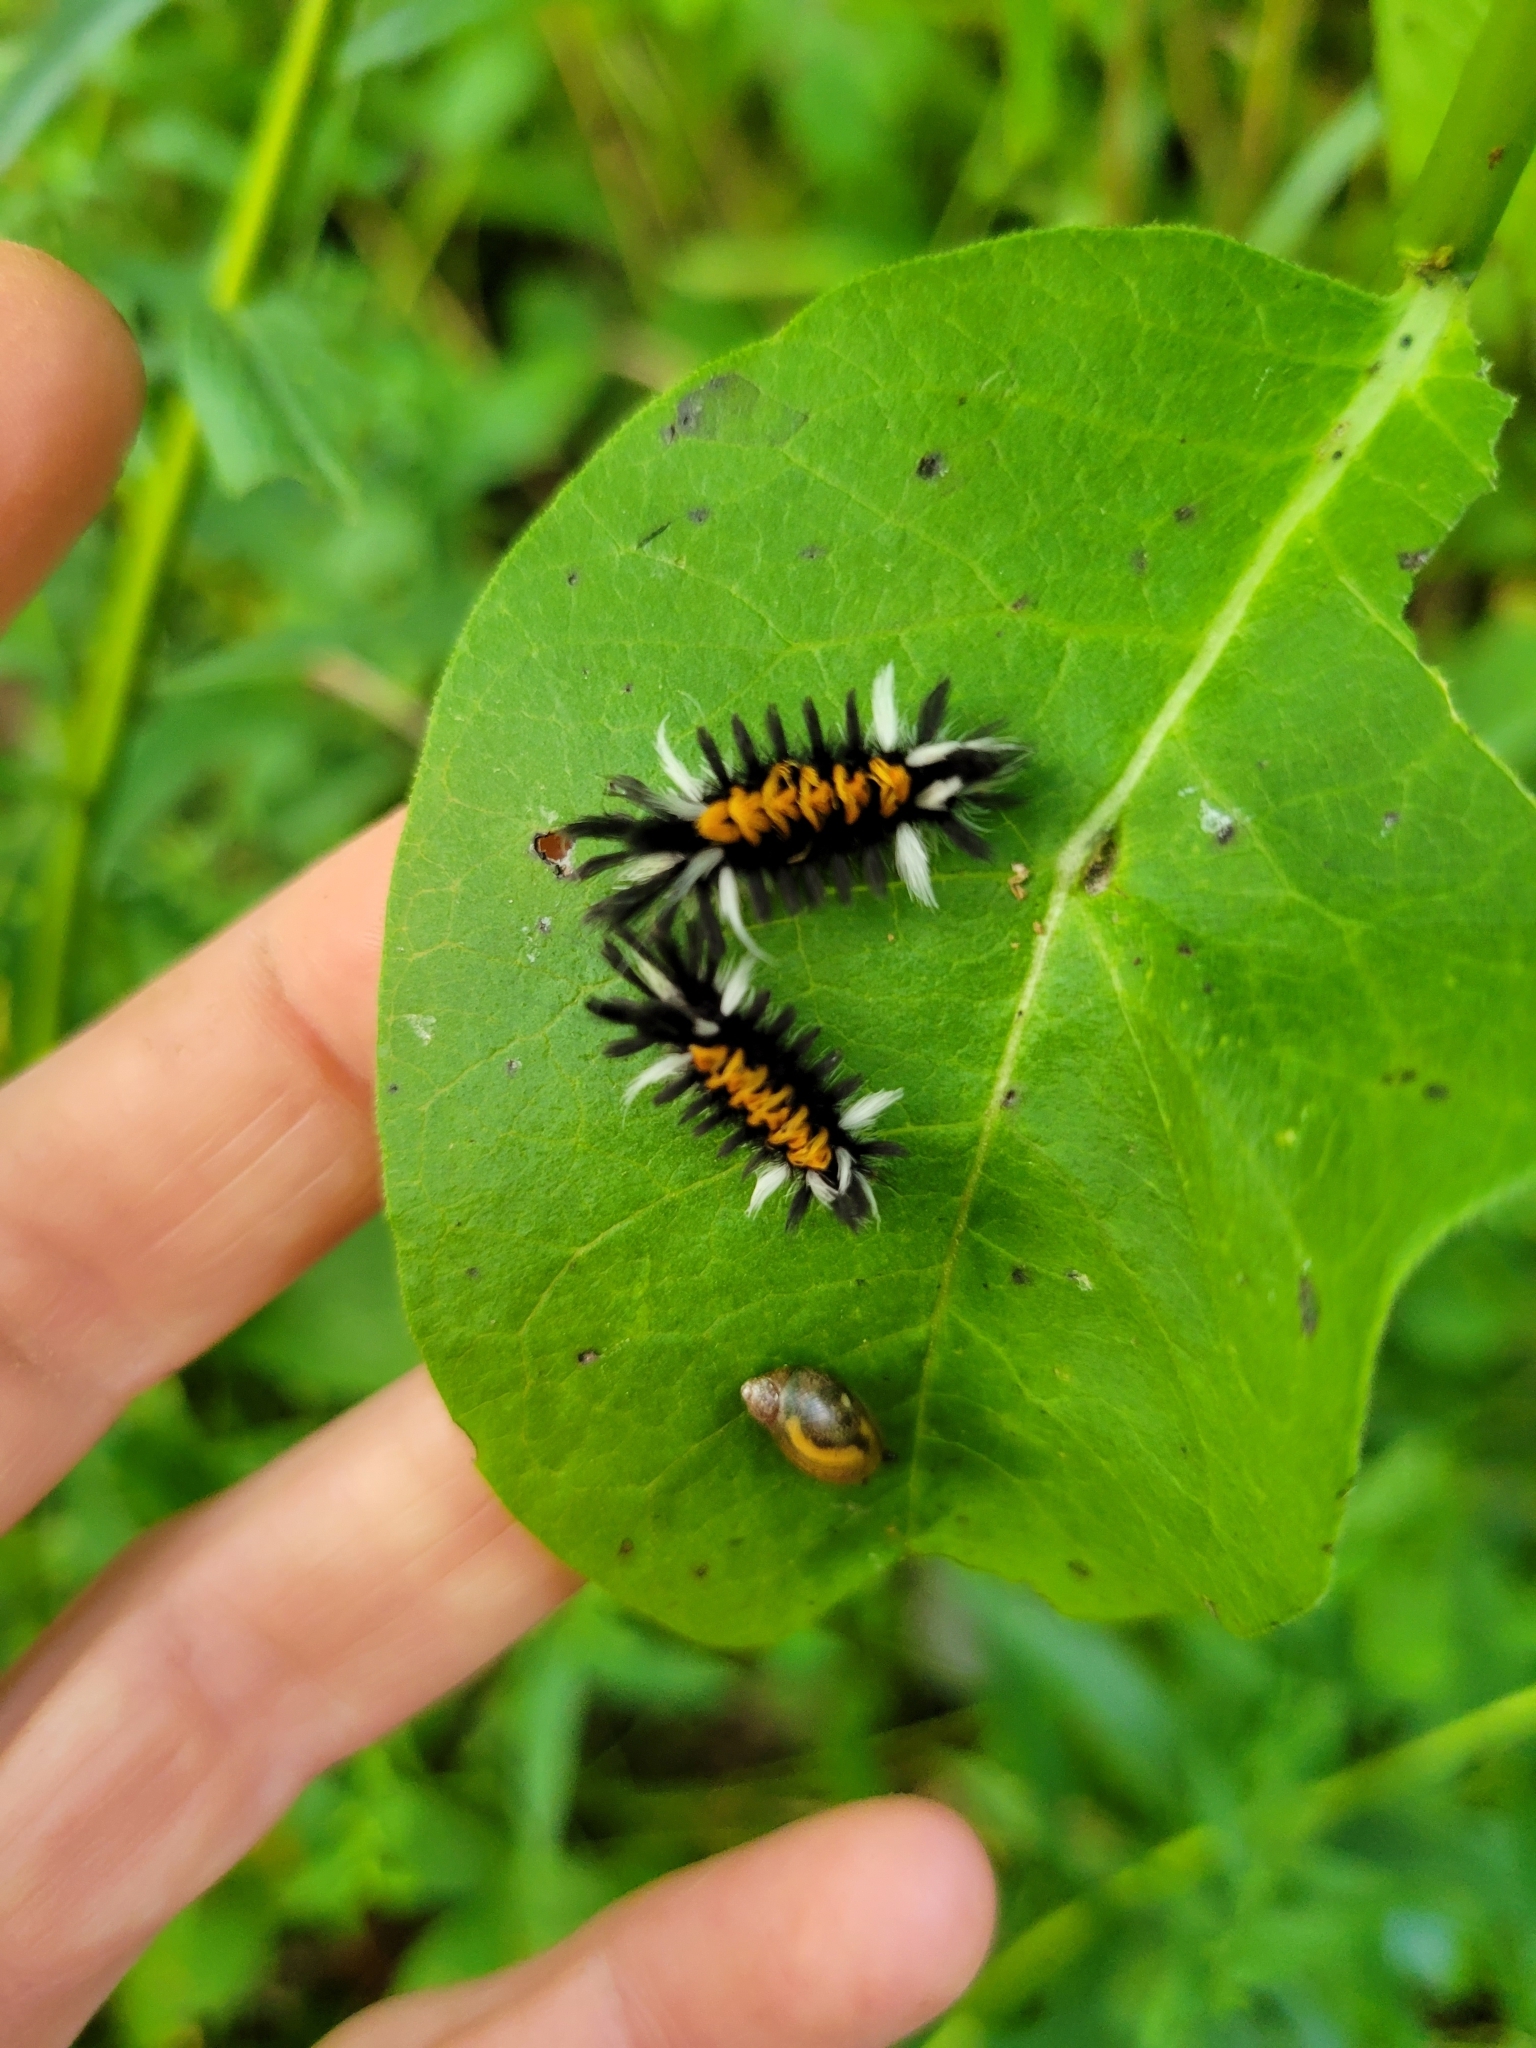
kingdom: Animalia
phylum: Arthropoda
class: Insecta
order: Lepidoptera
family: Erebidae
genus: Euchaetes
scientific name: Euchaetes egle
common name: Milkweed tussock moth
